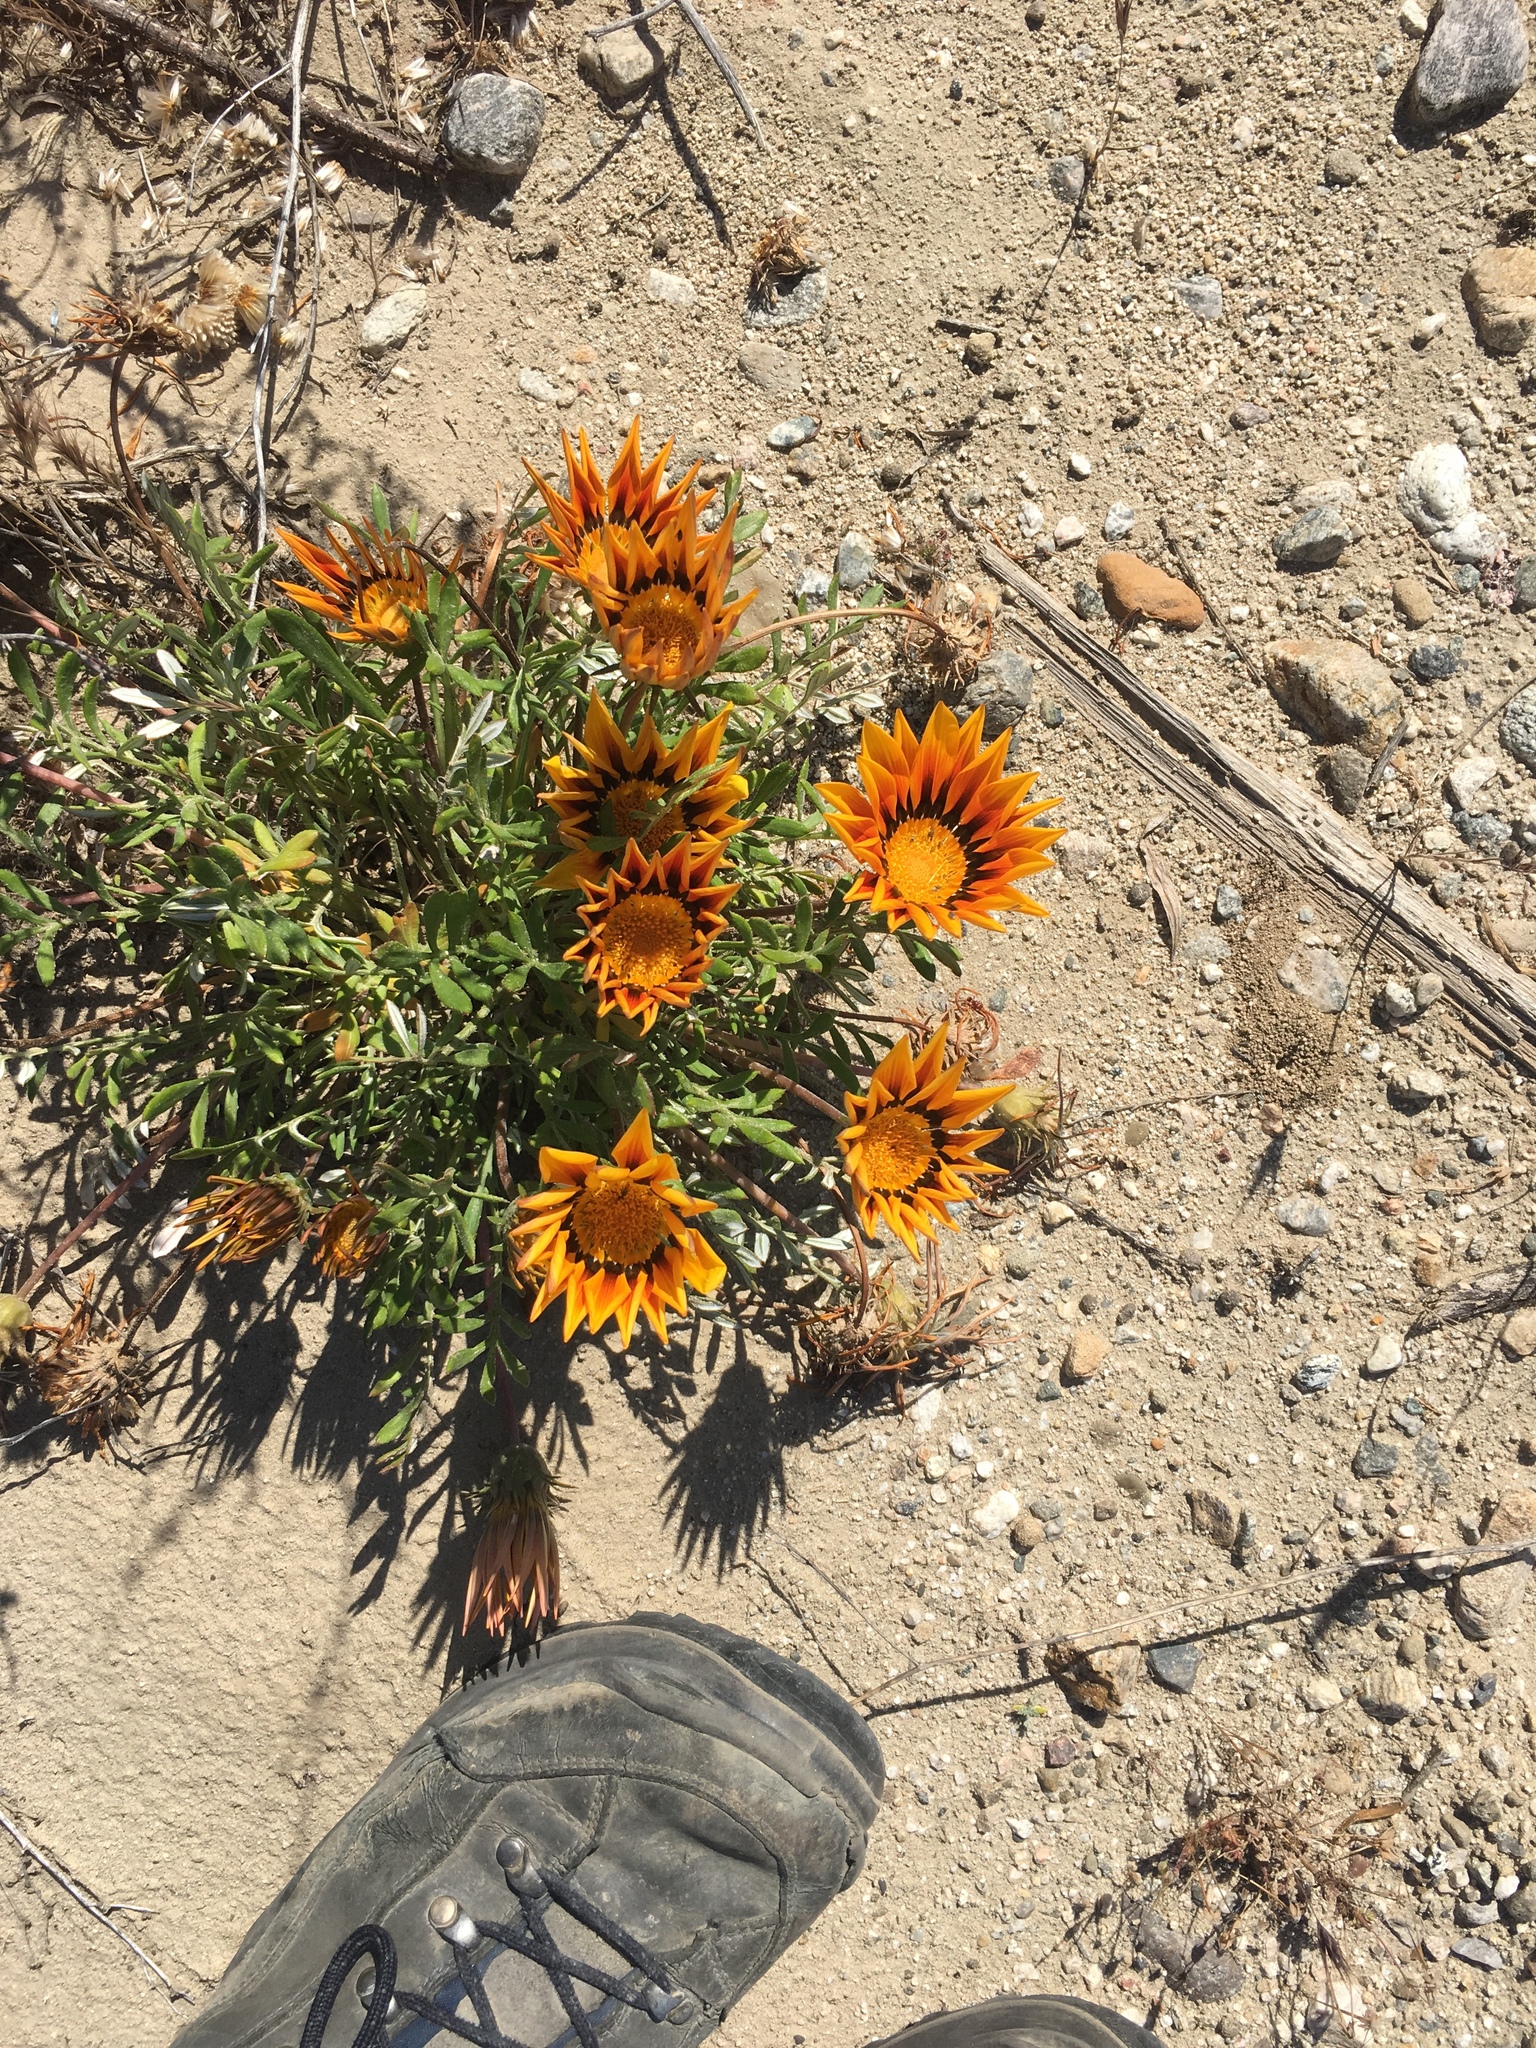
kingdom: Plantae
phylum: Tracheophyta
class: Magnoliopsida
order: Asterales
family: Asteraceae
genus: Gazania
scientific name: Gazania linearis
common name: Treasureflower
